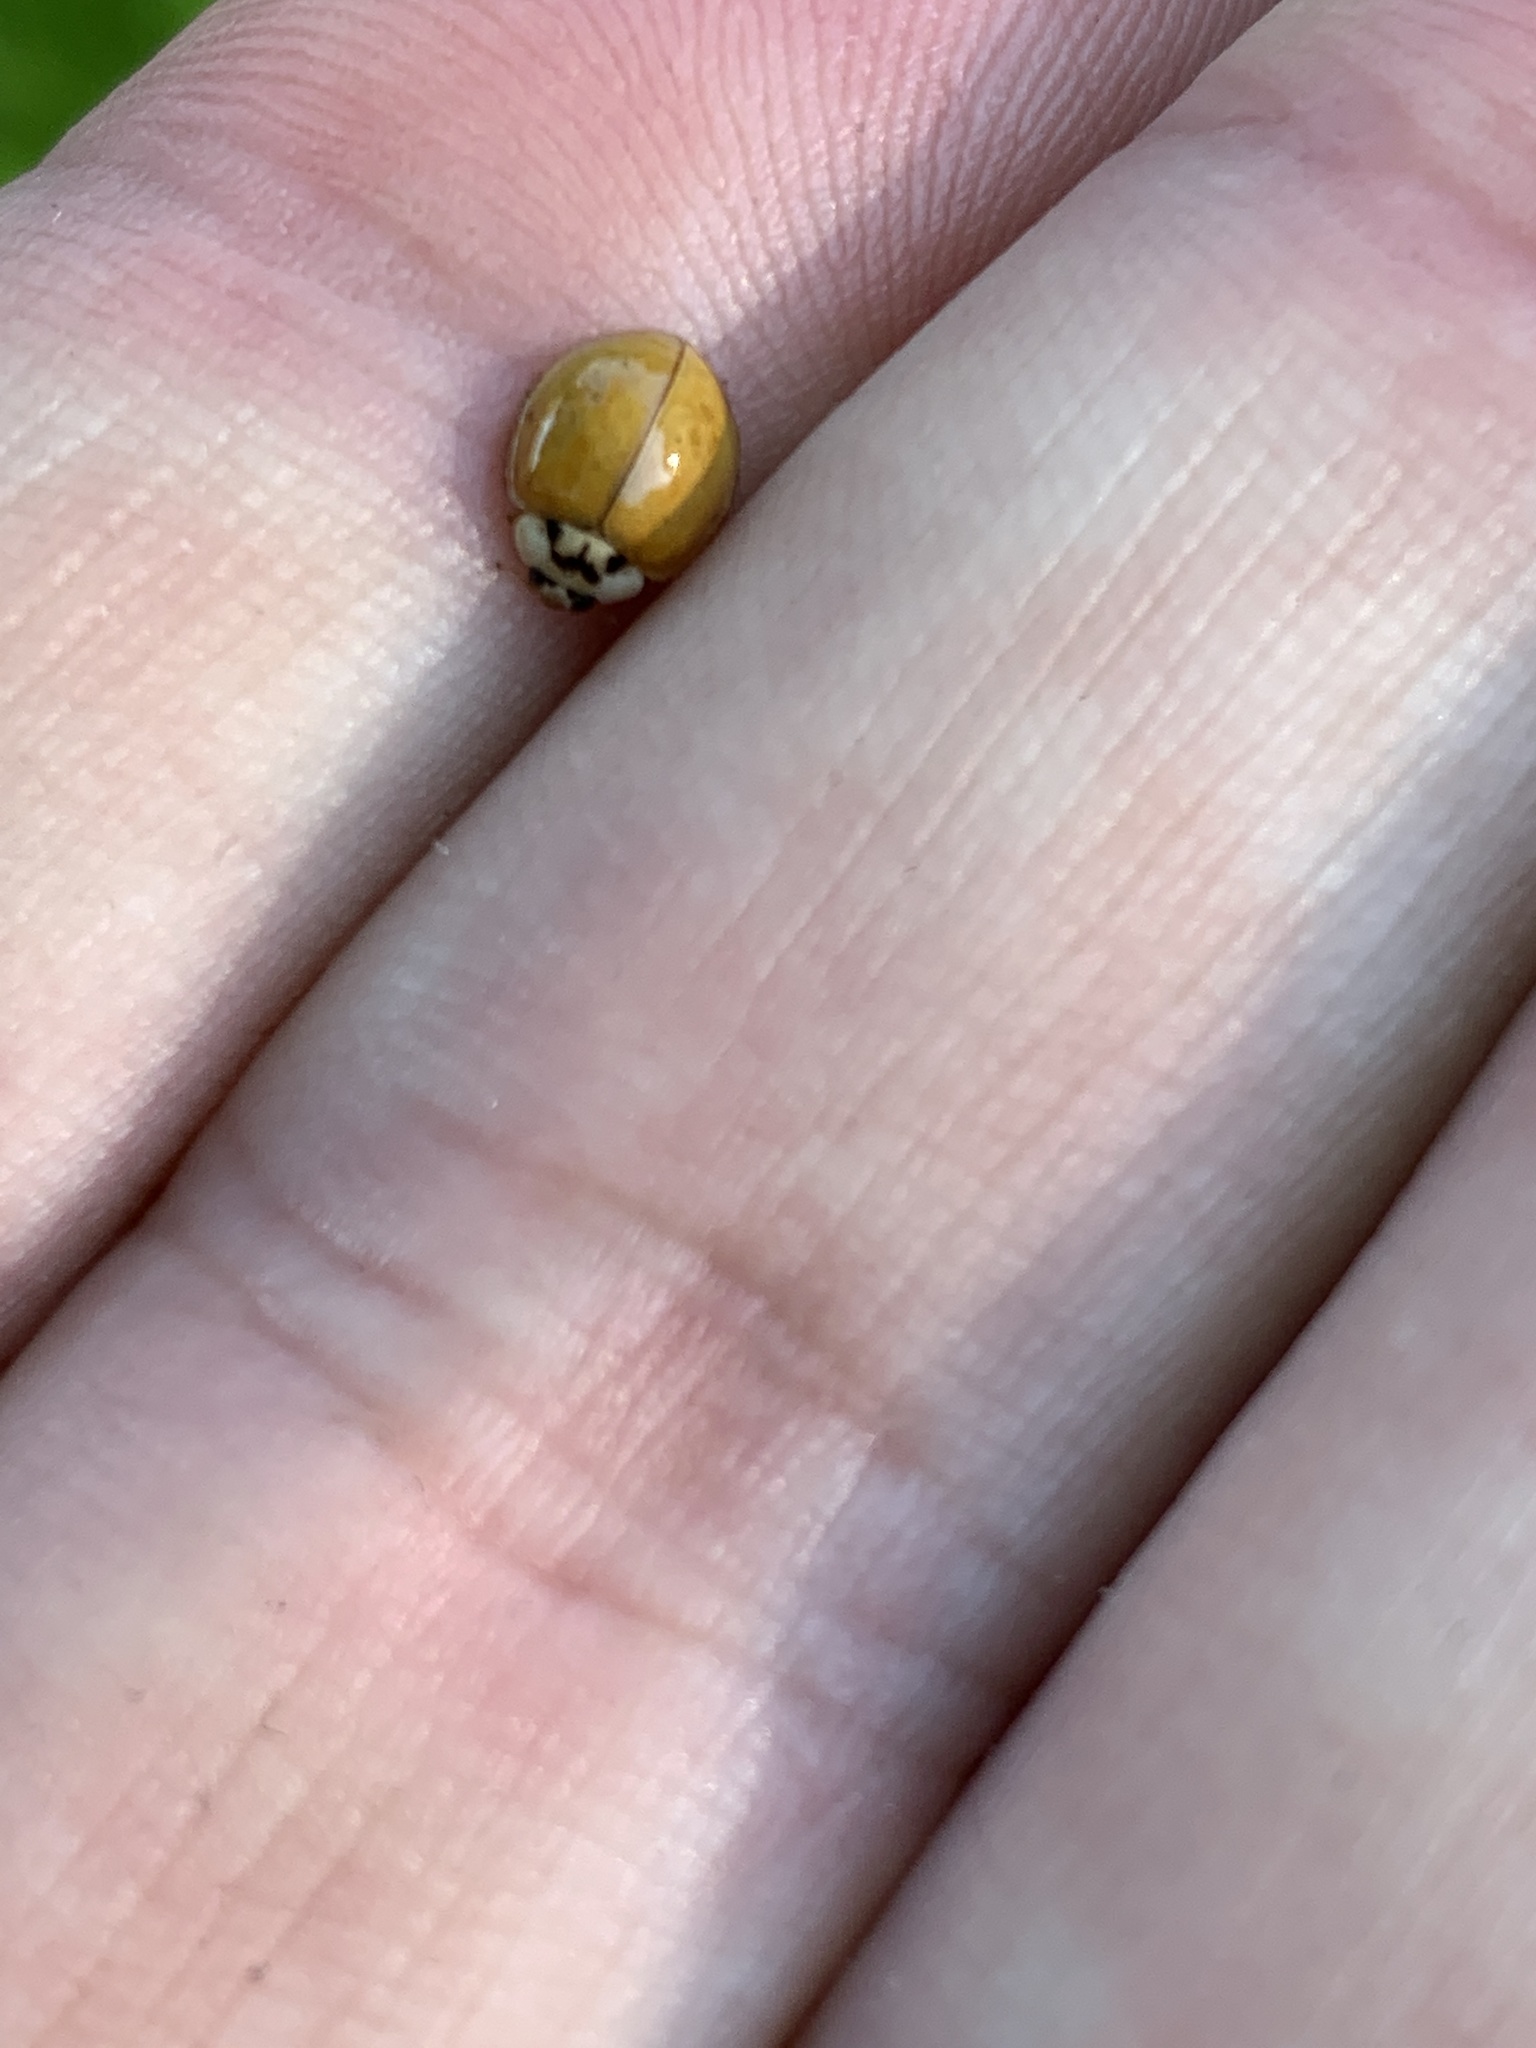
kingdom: Animalia
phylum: Arthropoda
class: Insecta
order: Coleoptera
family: Coccinellidae
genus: Harmonia
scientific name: Harmonia axyridis
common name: Harlequin ladybird
